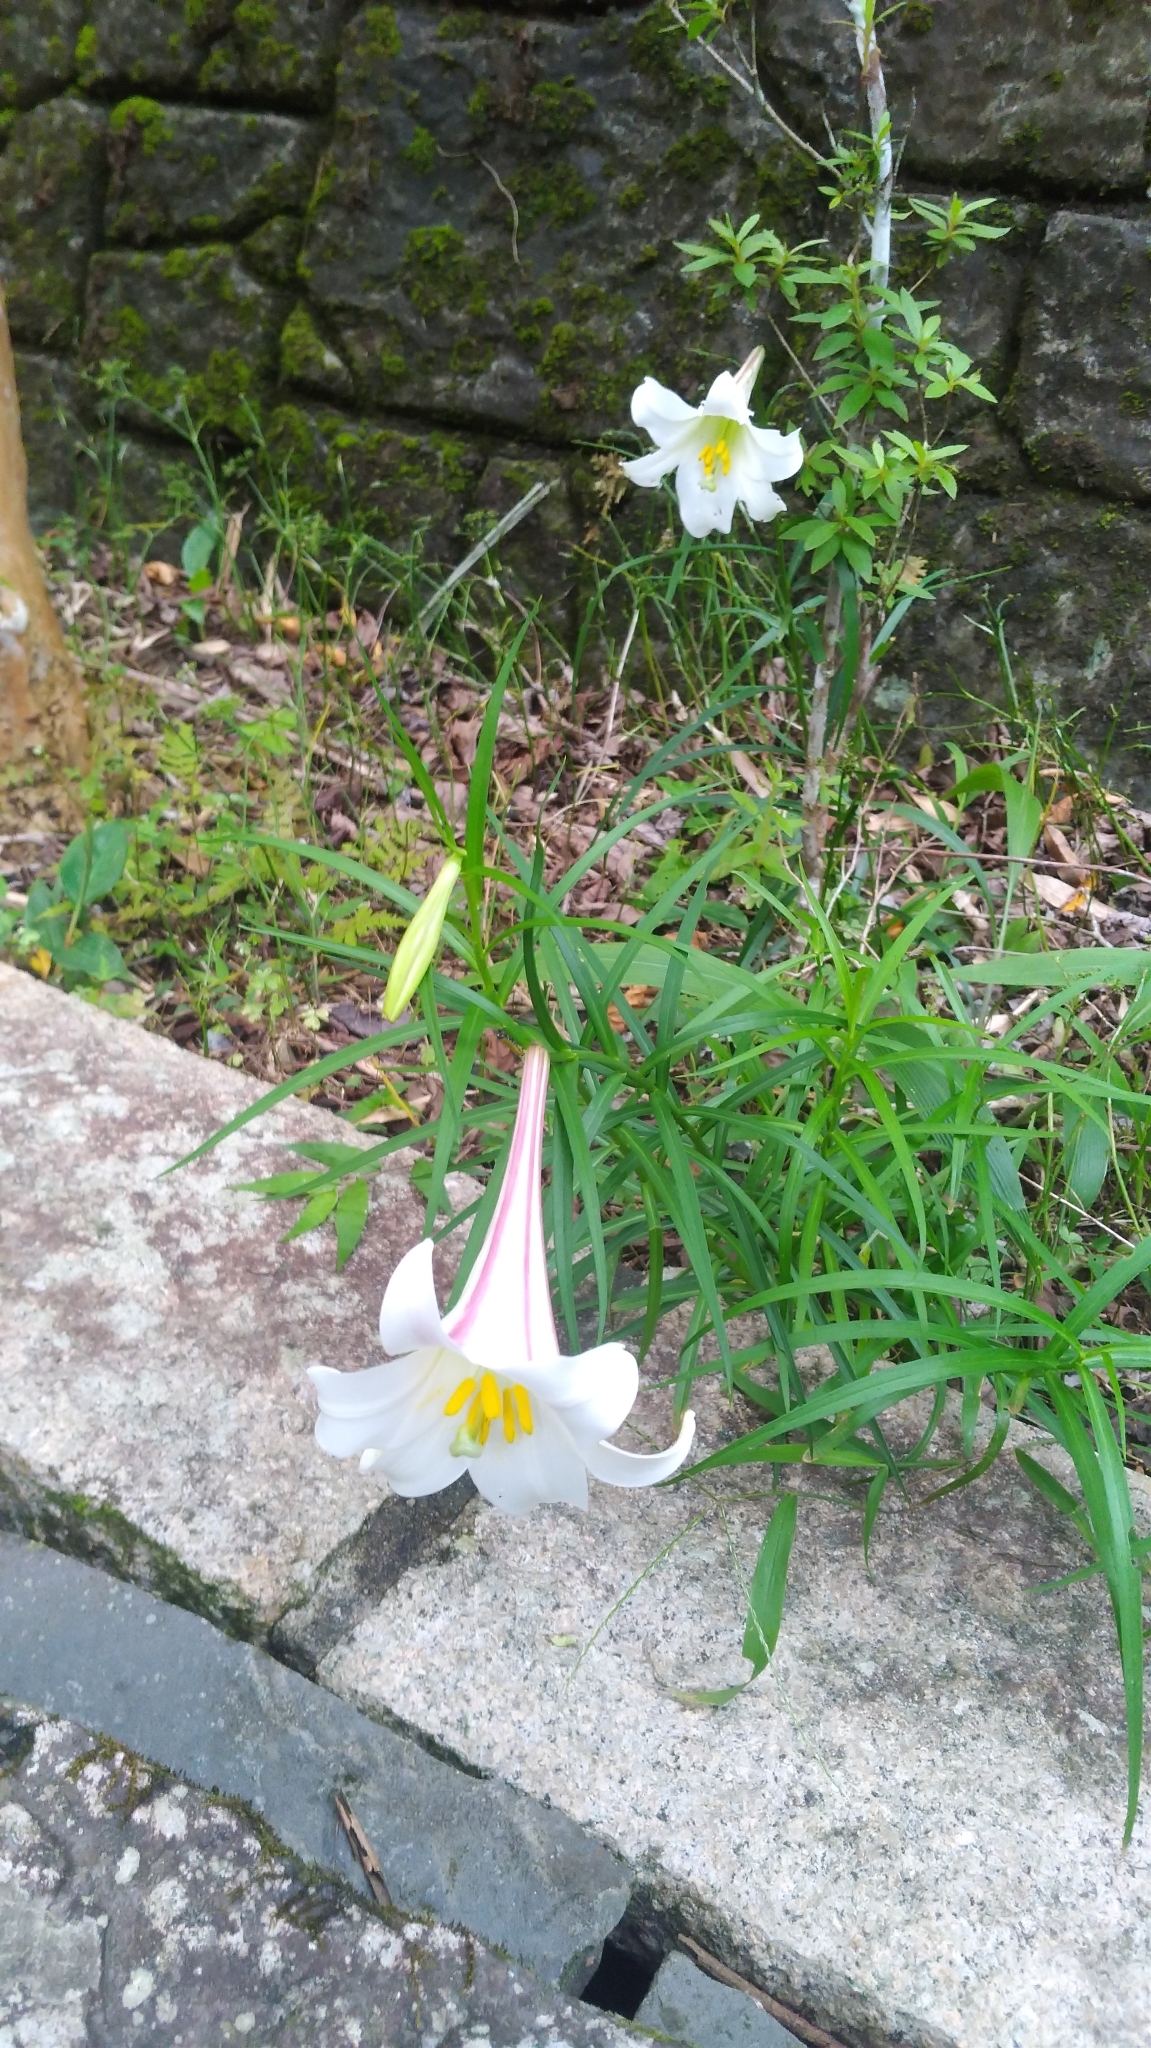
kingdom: Plantae
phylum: Tracheophyta
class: Liliopsida
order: Liliales
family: Liliaceae
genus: Lilium
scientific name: Lilium formosanum
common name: Formosa lily
